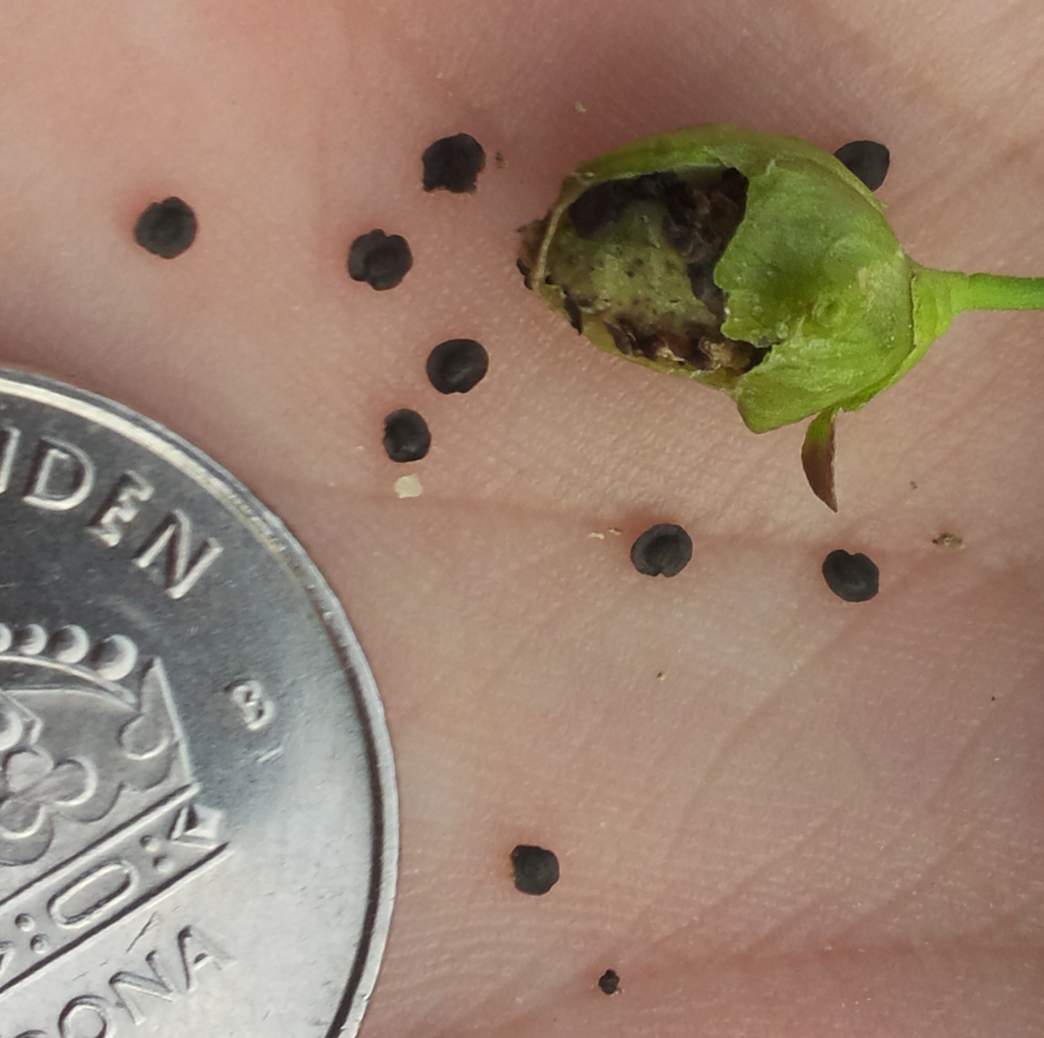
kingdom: Plantae
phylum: Tracheophyta
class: Magnoliopsida
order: Lamiales
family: Plantaginaceae
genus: Linaria
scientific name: Linaria vulgaris
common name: Butter and eggs
